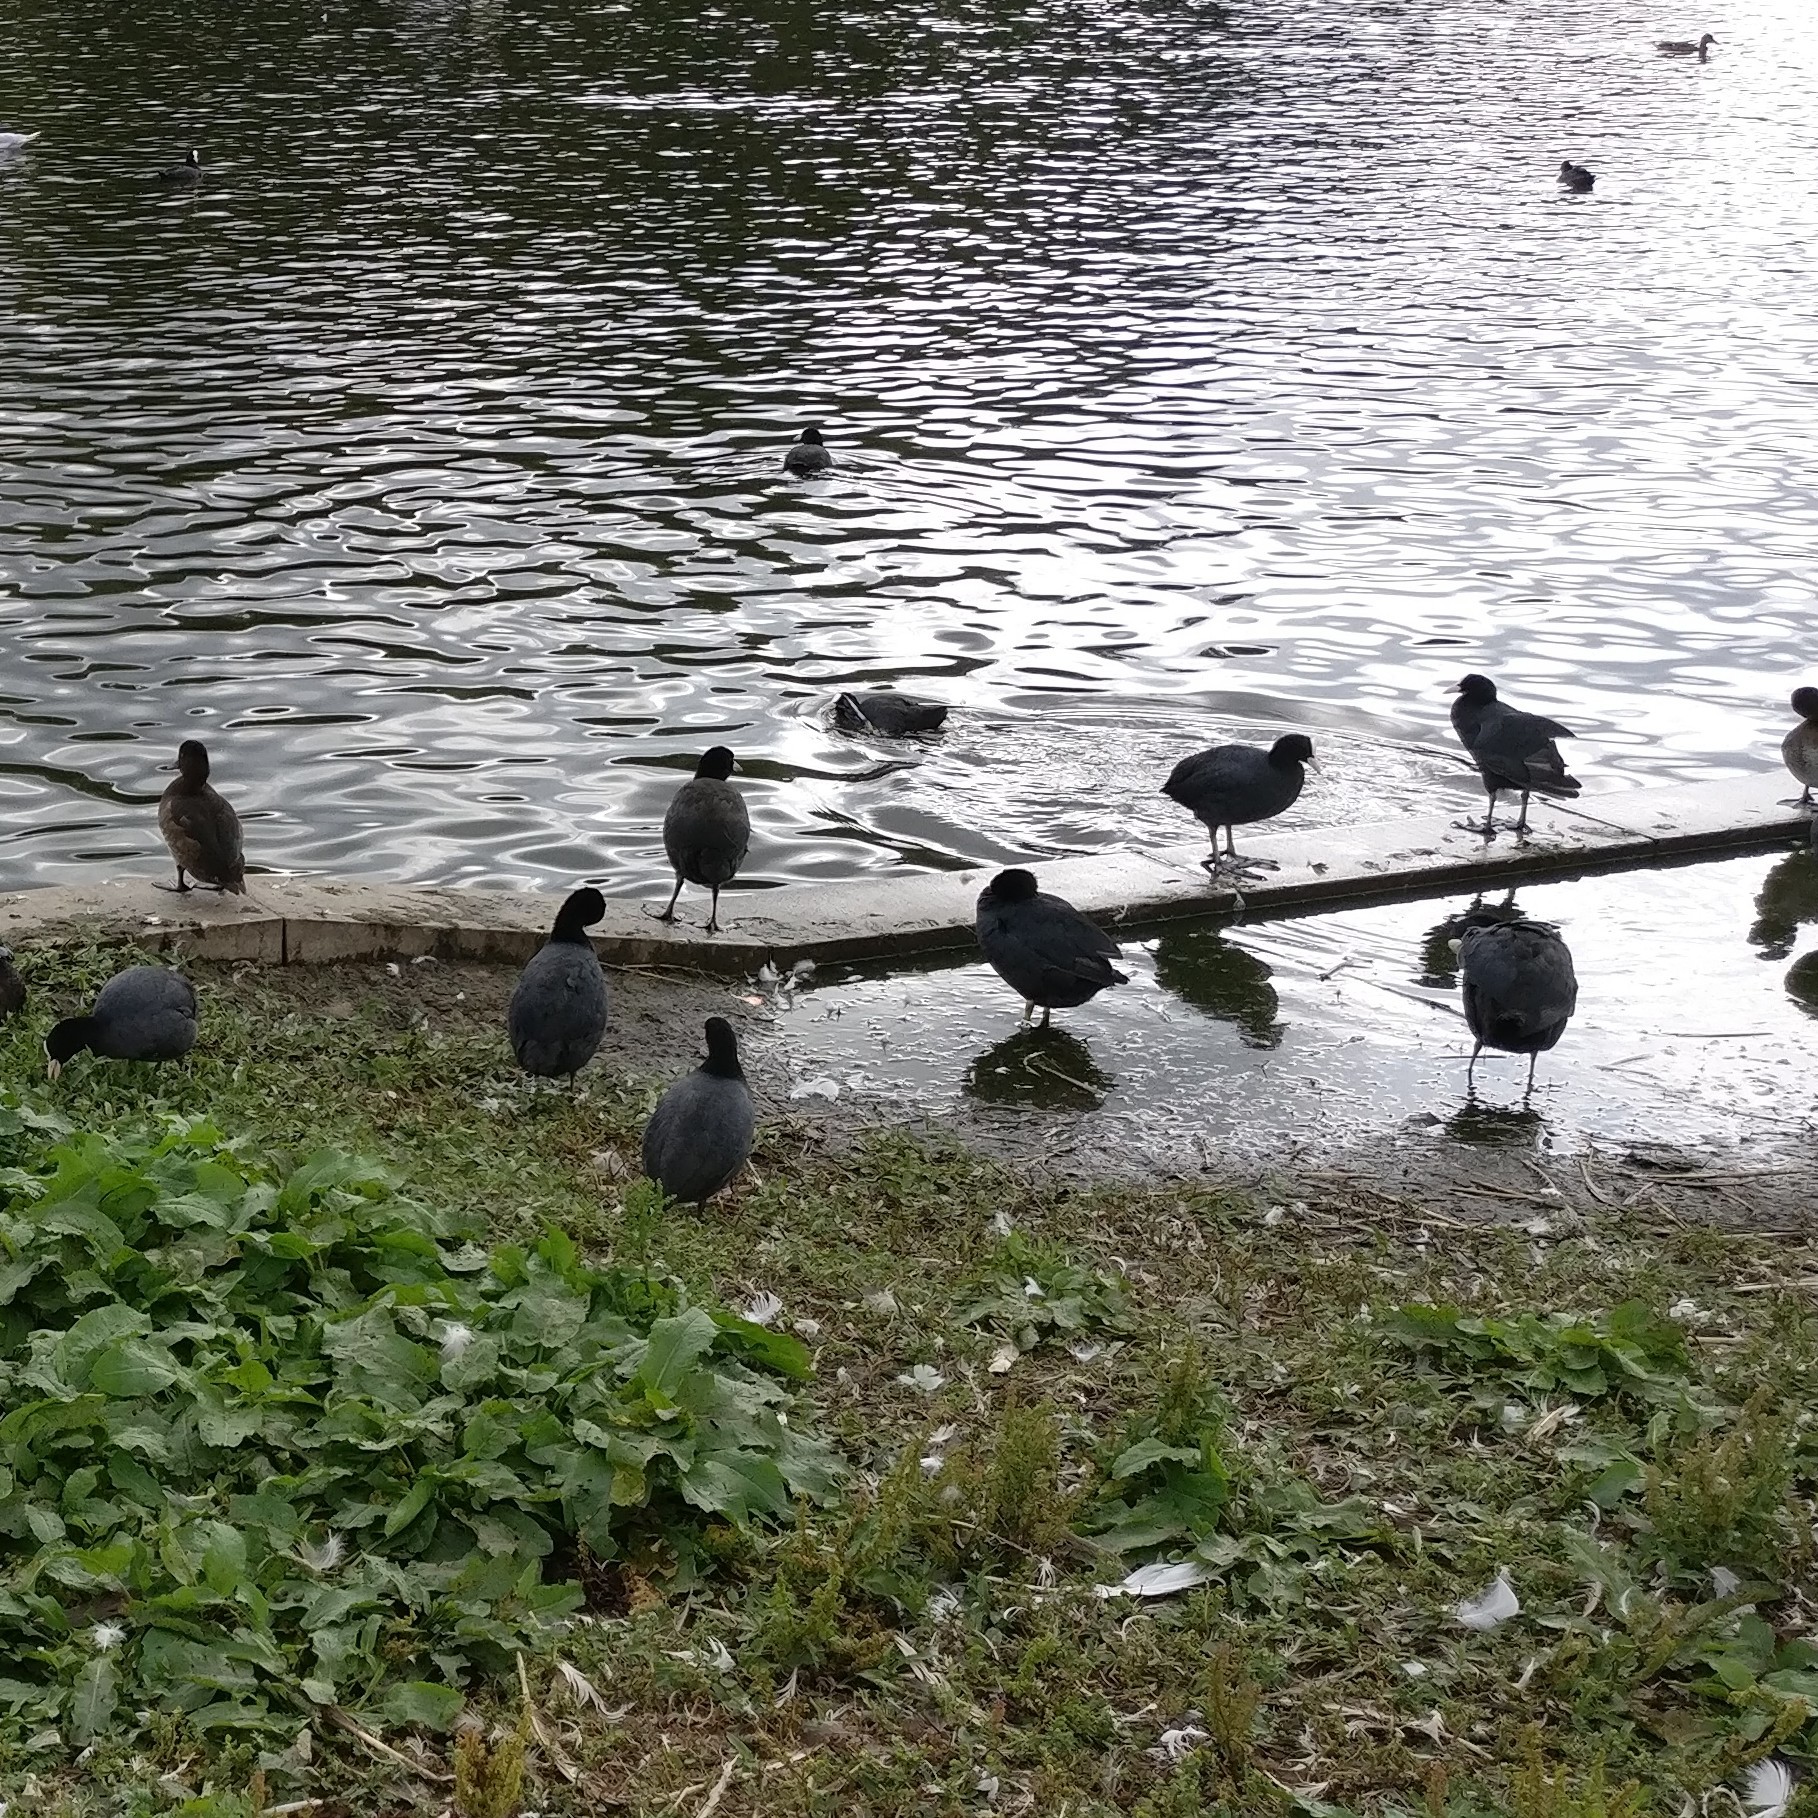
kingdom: Animalia
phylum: Chordata
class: Aves
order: Gruiformes
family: Rallidae
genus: Fulica
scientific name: Fulica atra
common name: Eurasian coot
